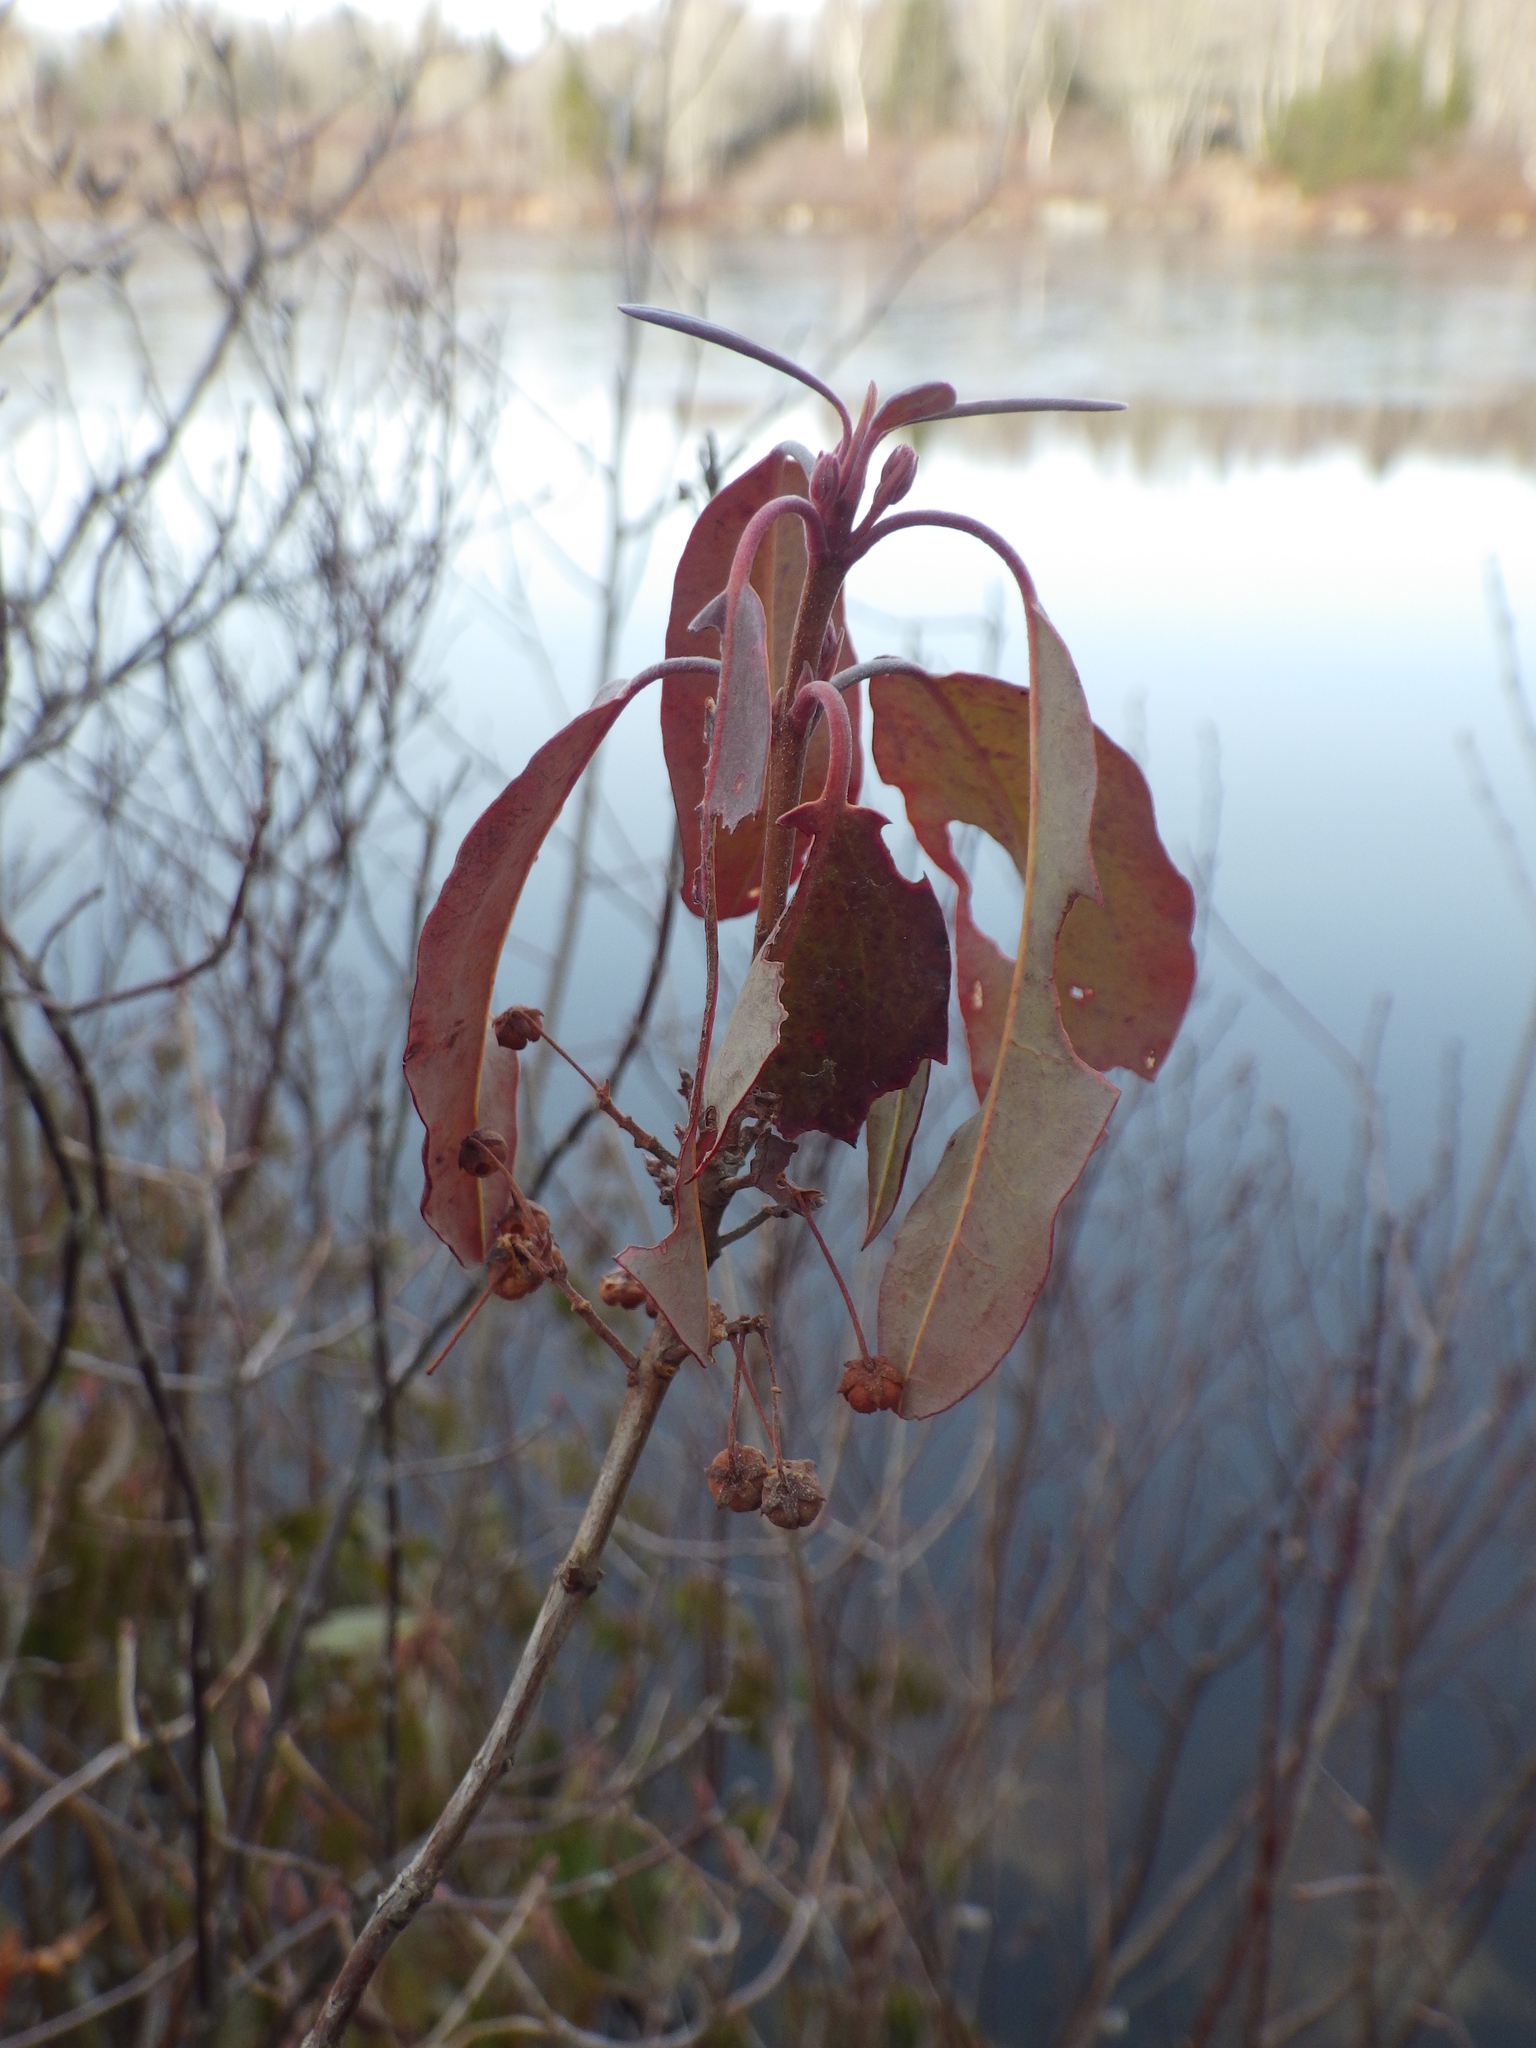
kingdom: Plantae
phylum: Tracheophyta
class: Magnoliopsida
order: Ericales
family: Ericaceae
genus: Kalmia
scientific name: Kalmia angustifolia
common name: Sheep-laurel
